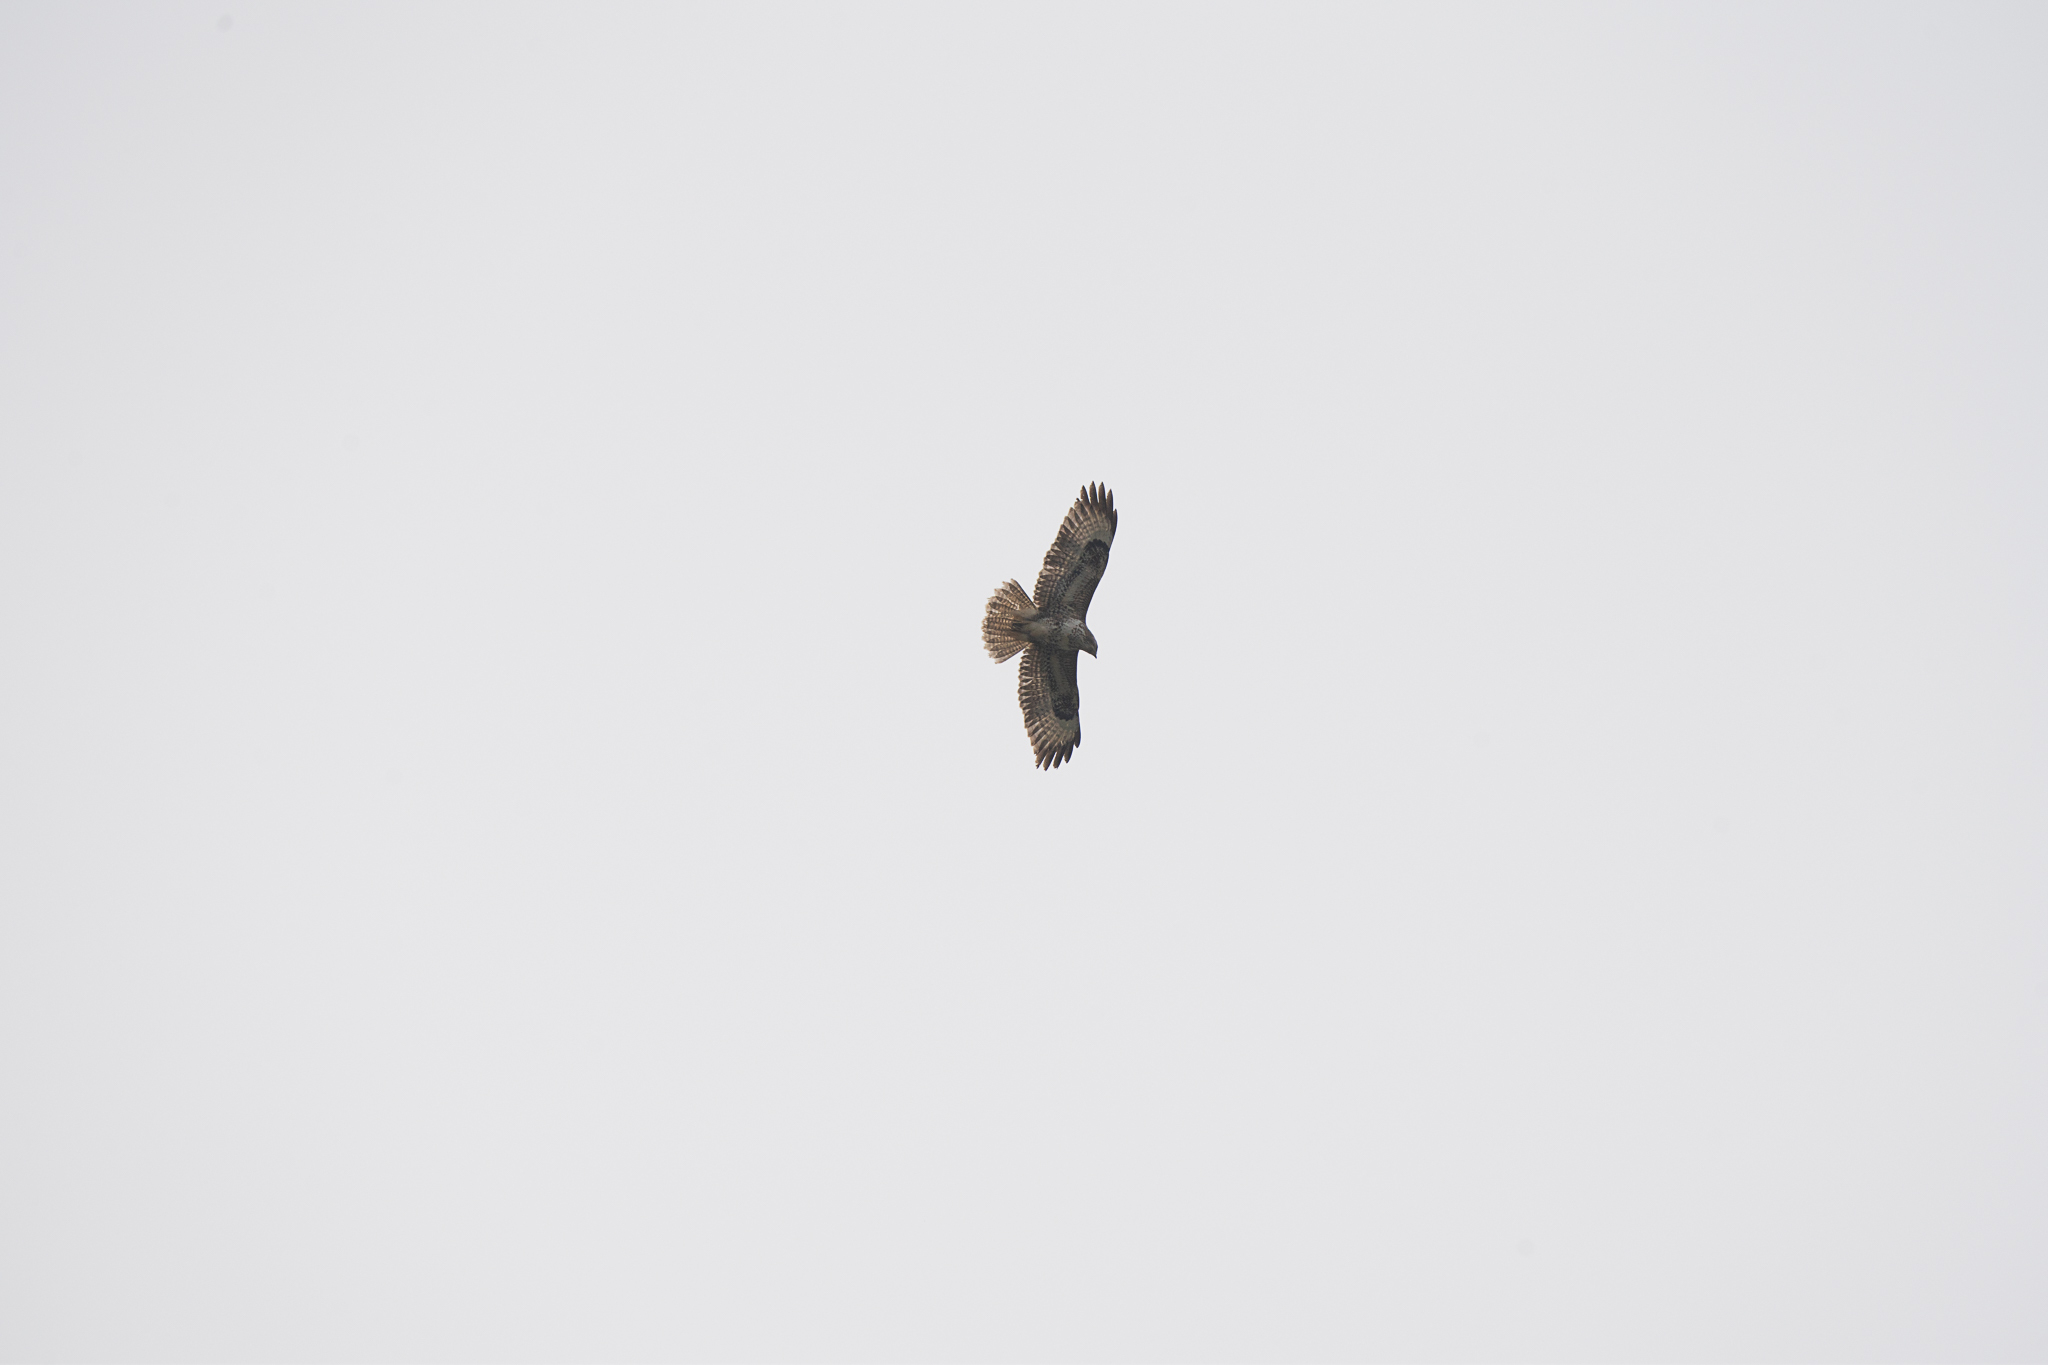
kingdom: Animalia
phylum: Chordata
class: Aves
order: Accipitriformes
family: Accipitridae
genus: Buteo
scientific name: Buteo buteo
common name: Common buzzard
